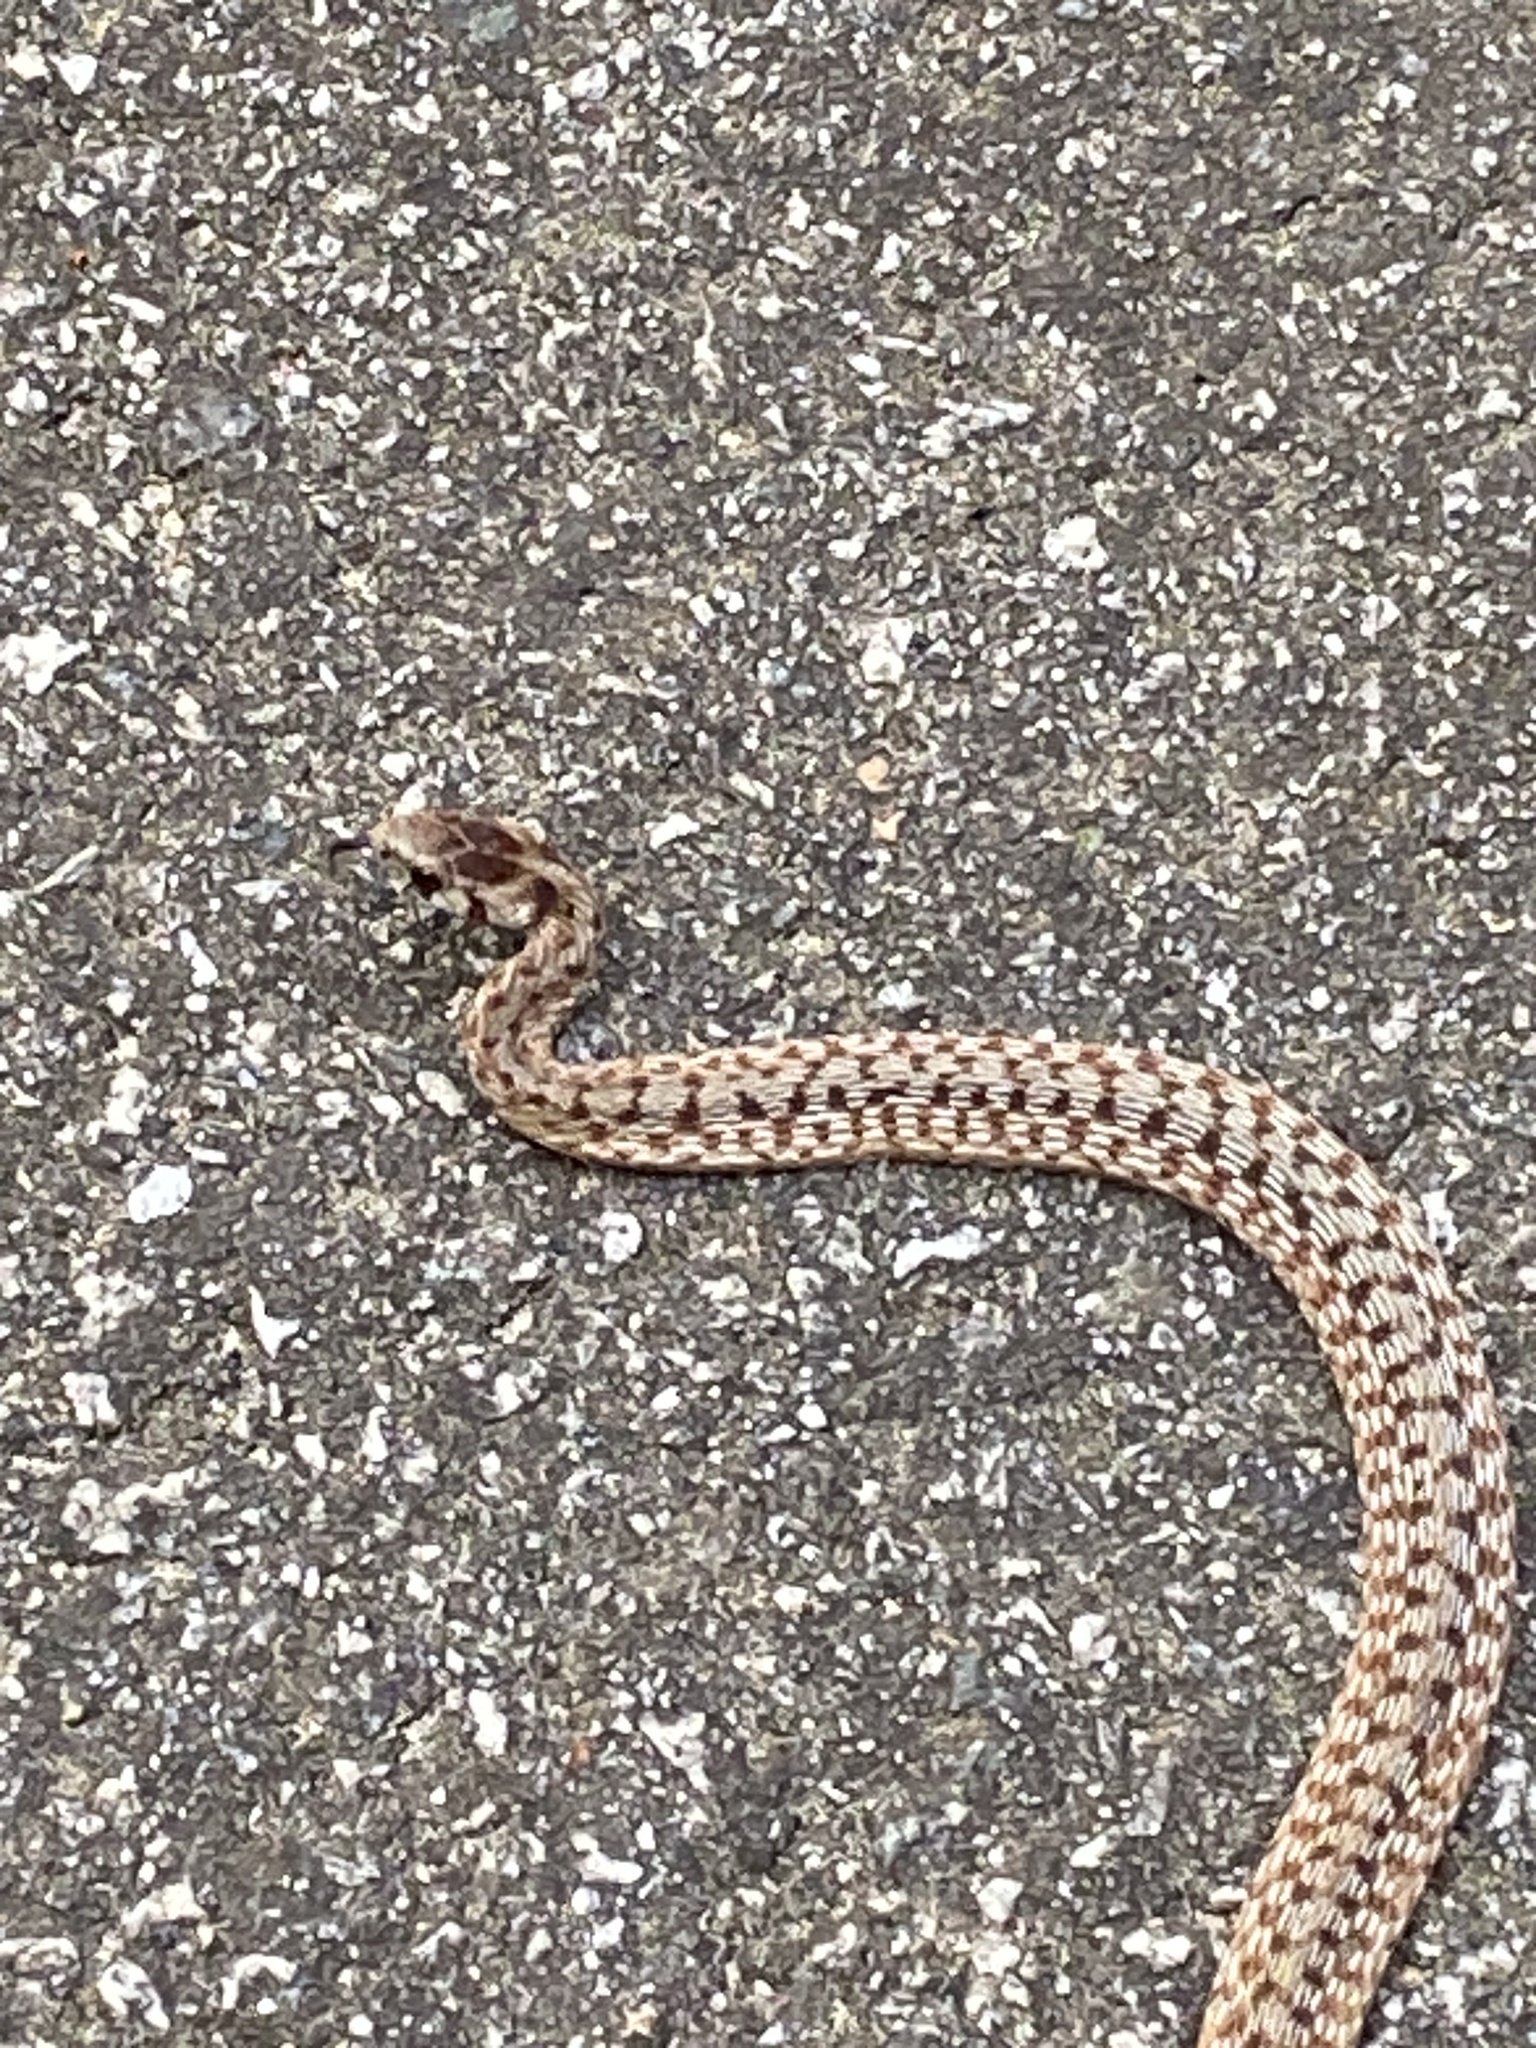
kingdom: Animalia
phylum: Chordata
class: Squamata
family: Colubridae
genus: Storeria
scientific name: Storeria dekayi
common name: (dekay’s) brown snake
